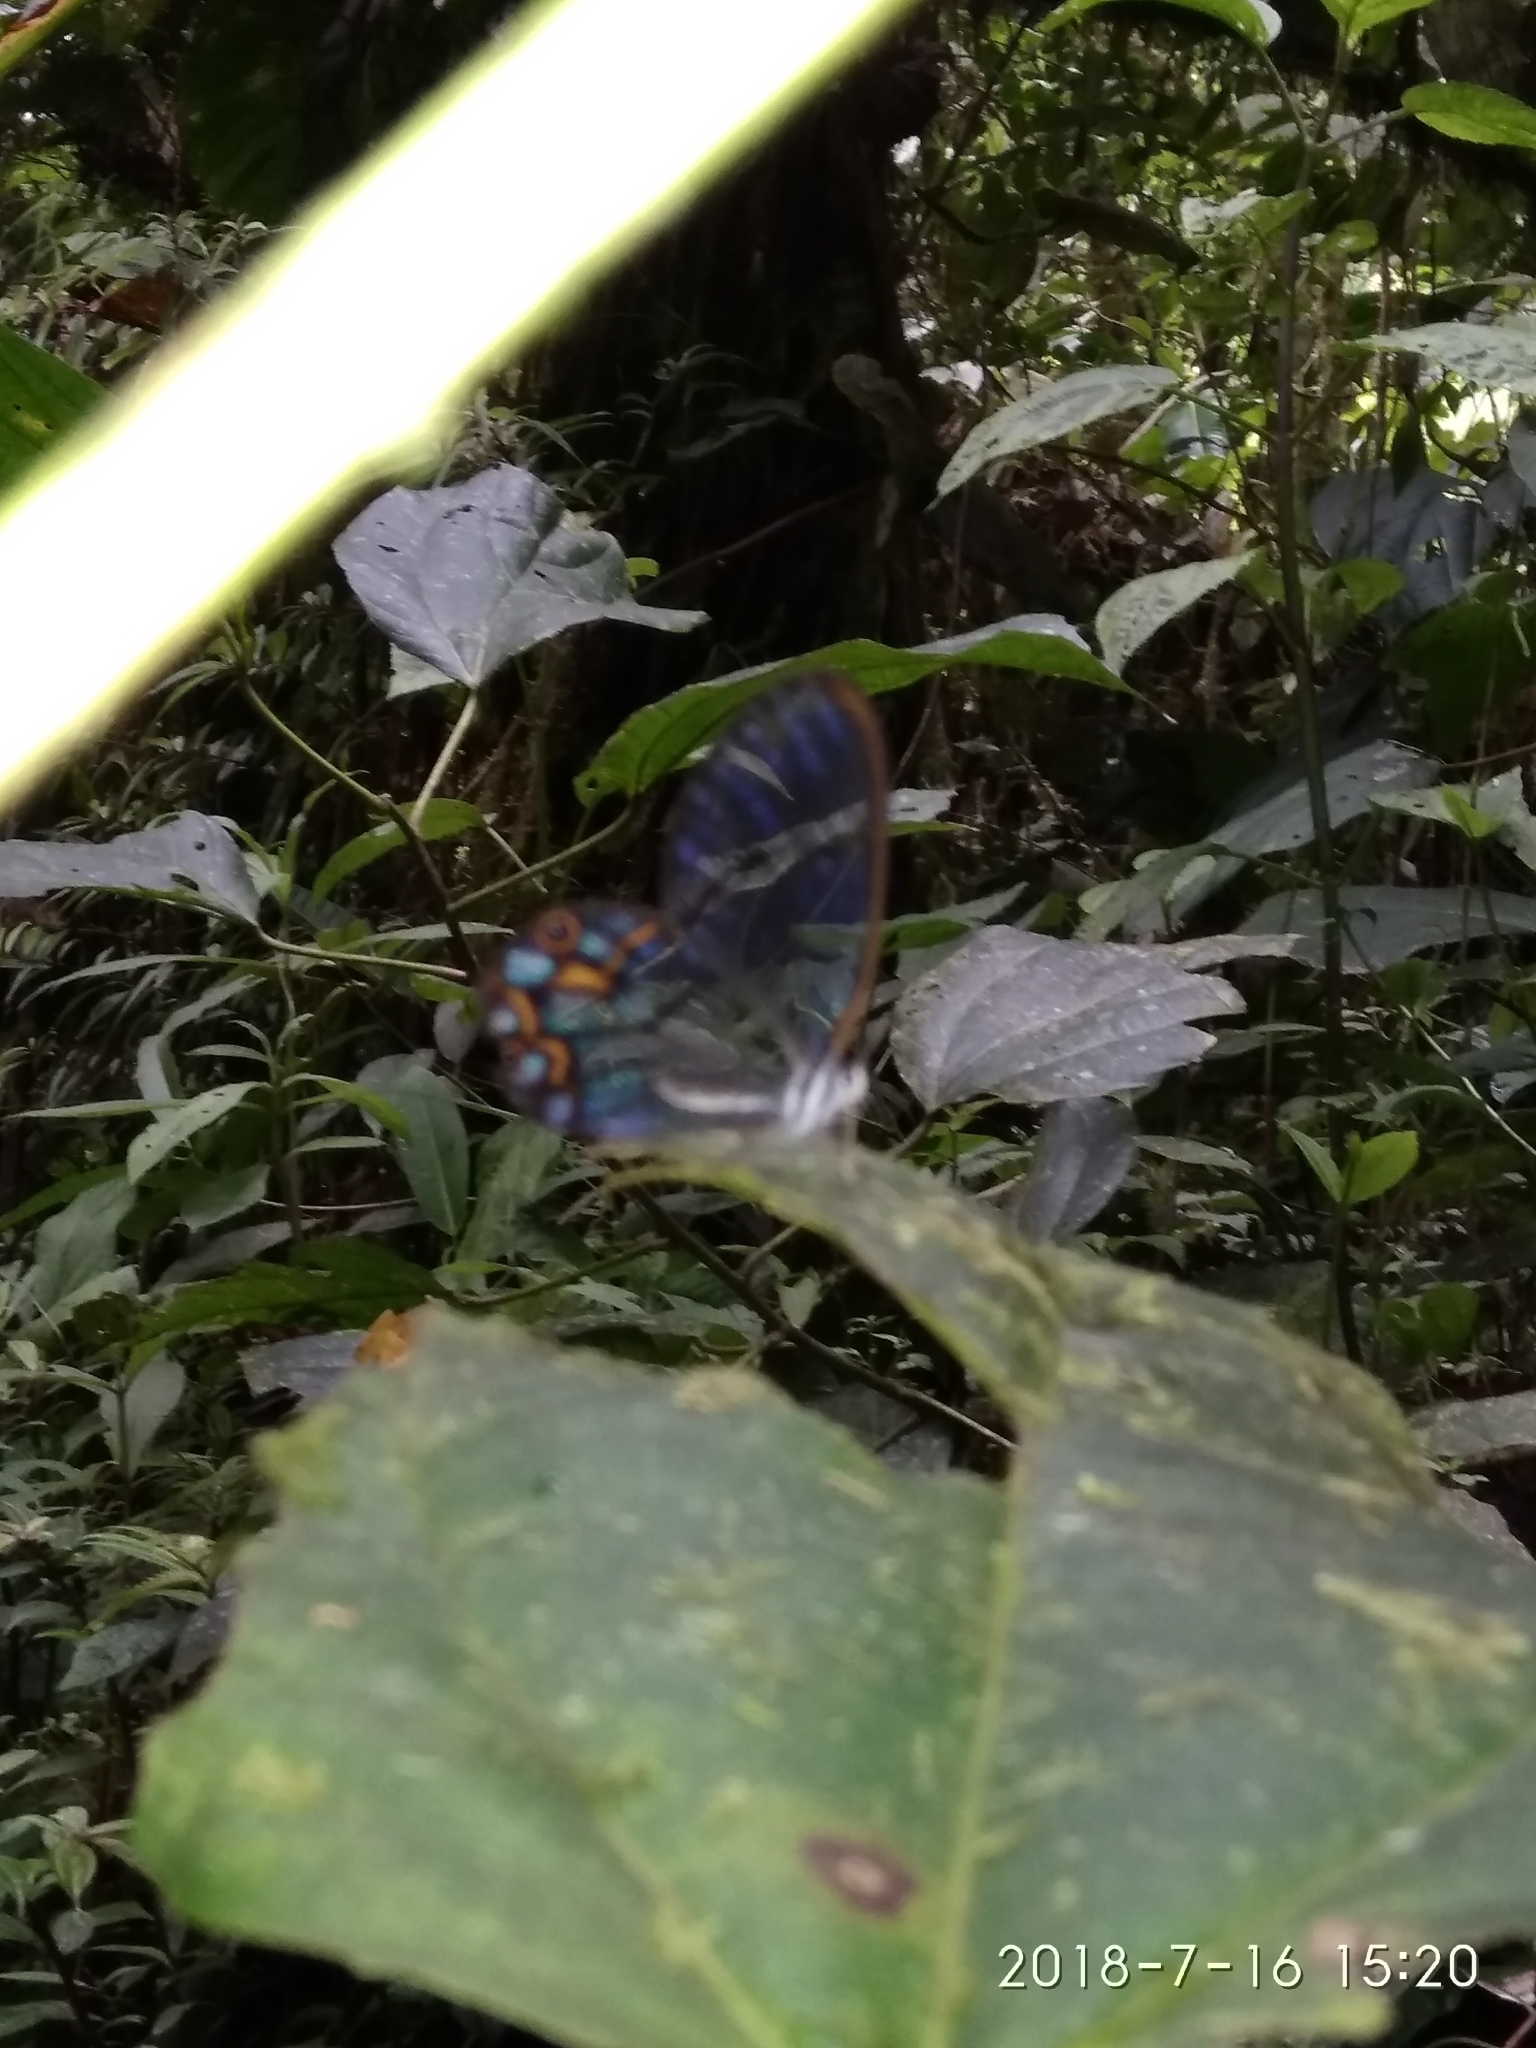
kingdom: Animalia
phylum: Arthropoda
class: Insecta
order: Lepidoptera
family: Nymphalidae
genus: Pseudohaetera
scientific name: Pseudohaetera hypaesia
